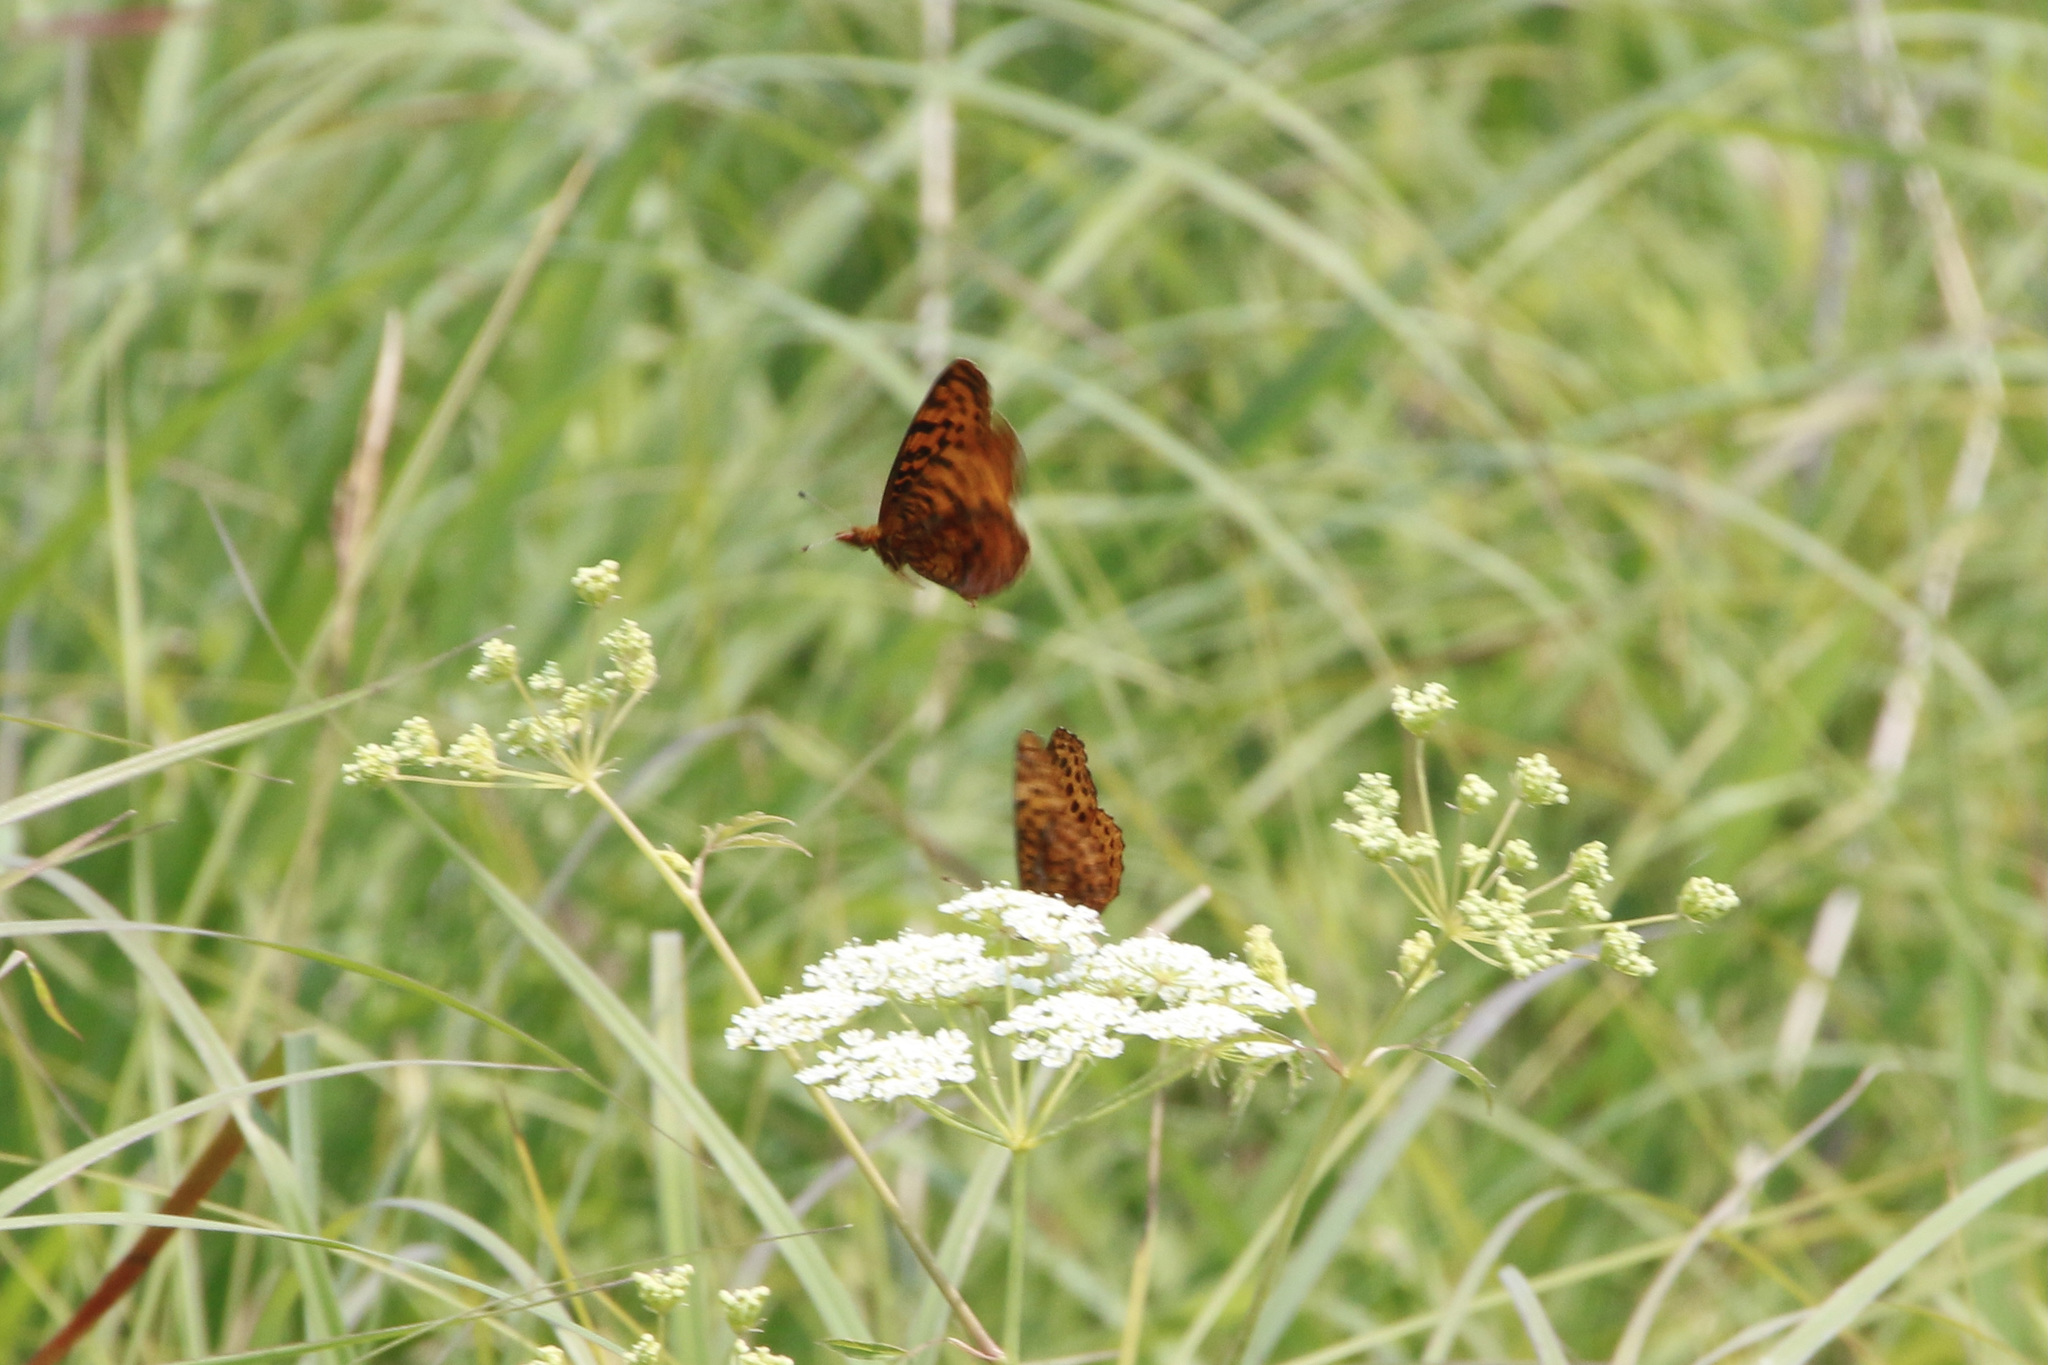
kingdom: Animalia
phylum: Arthropoda
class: Insecta
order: Lepidoptera
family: Nymphalidae
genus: Clossiana
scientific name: Clossiana toddi
